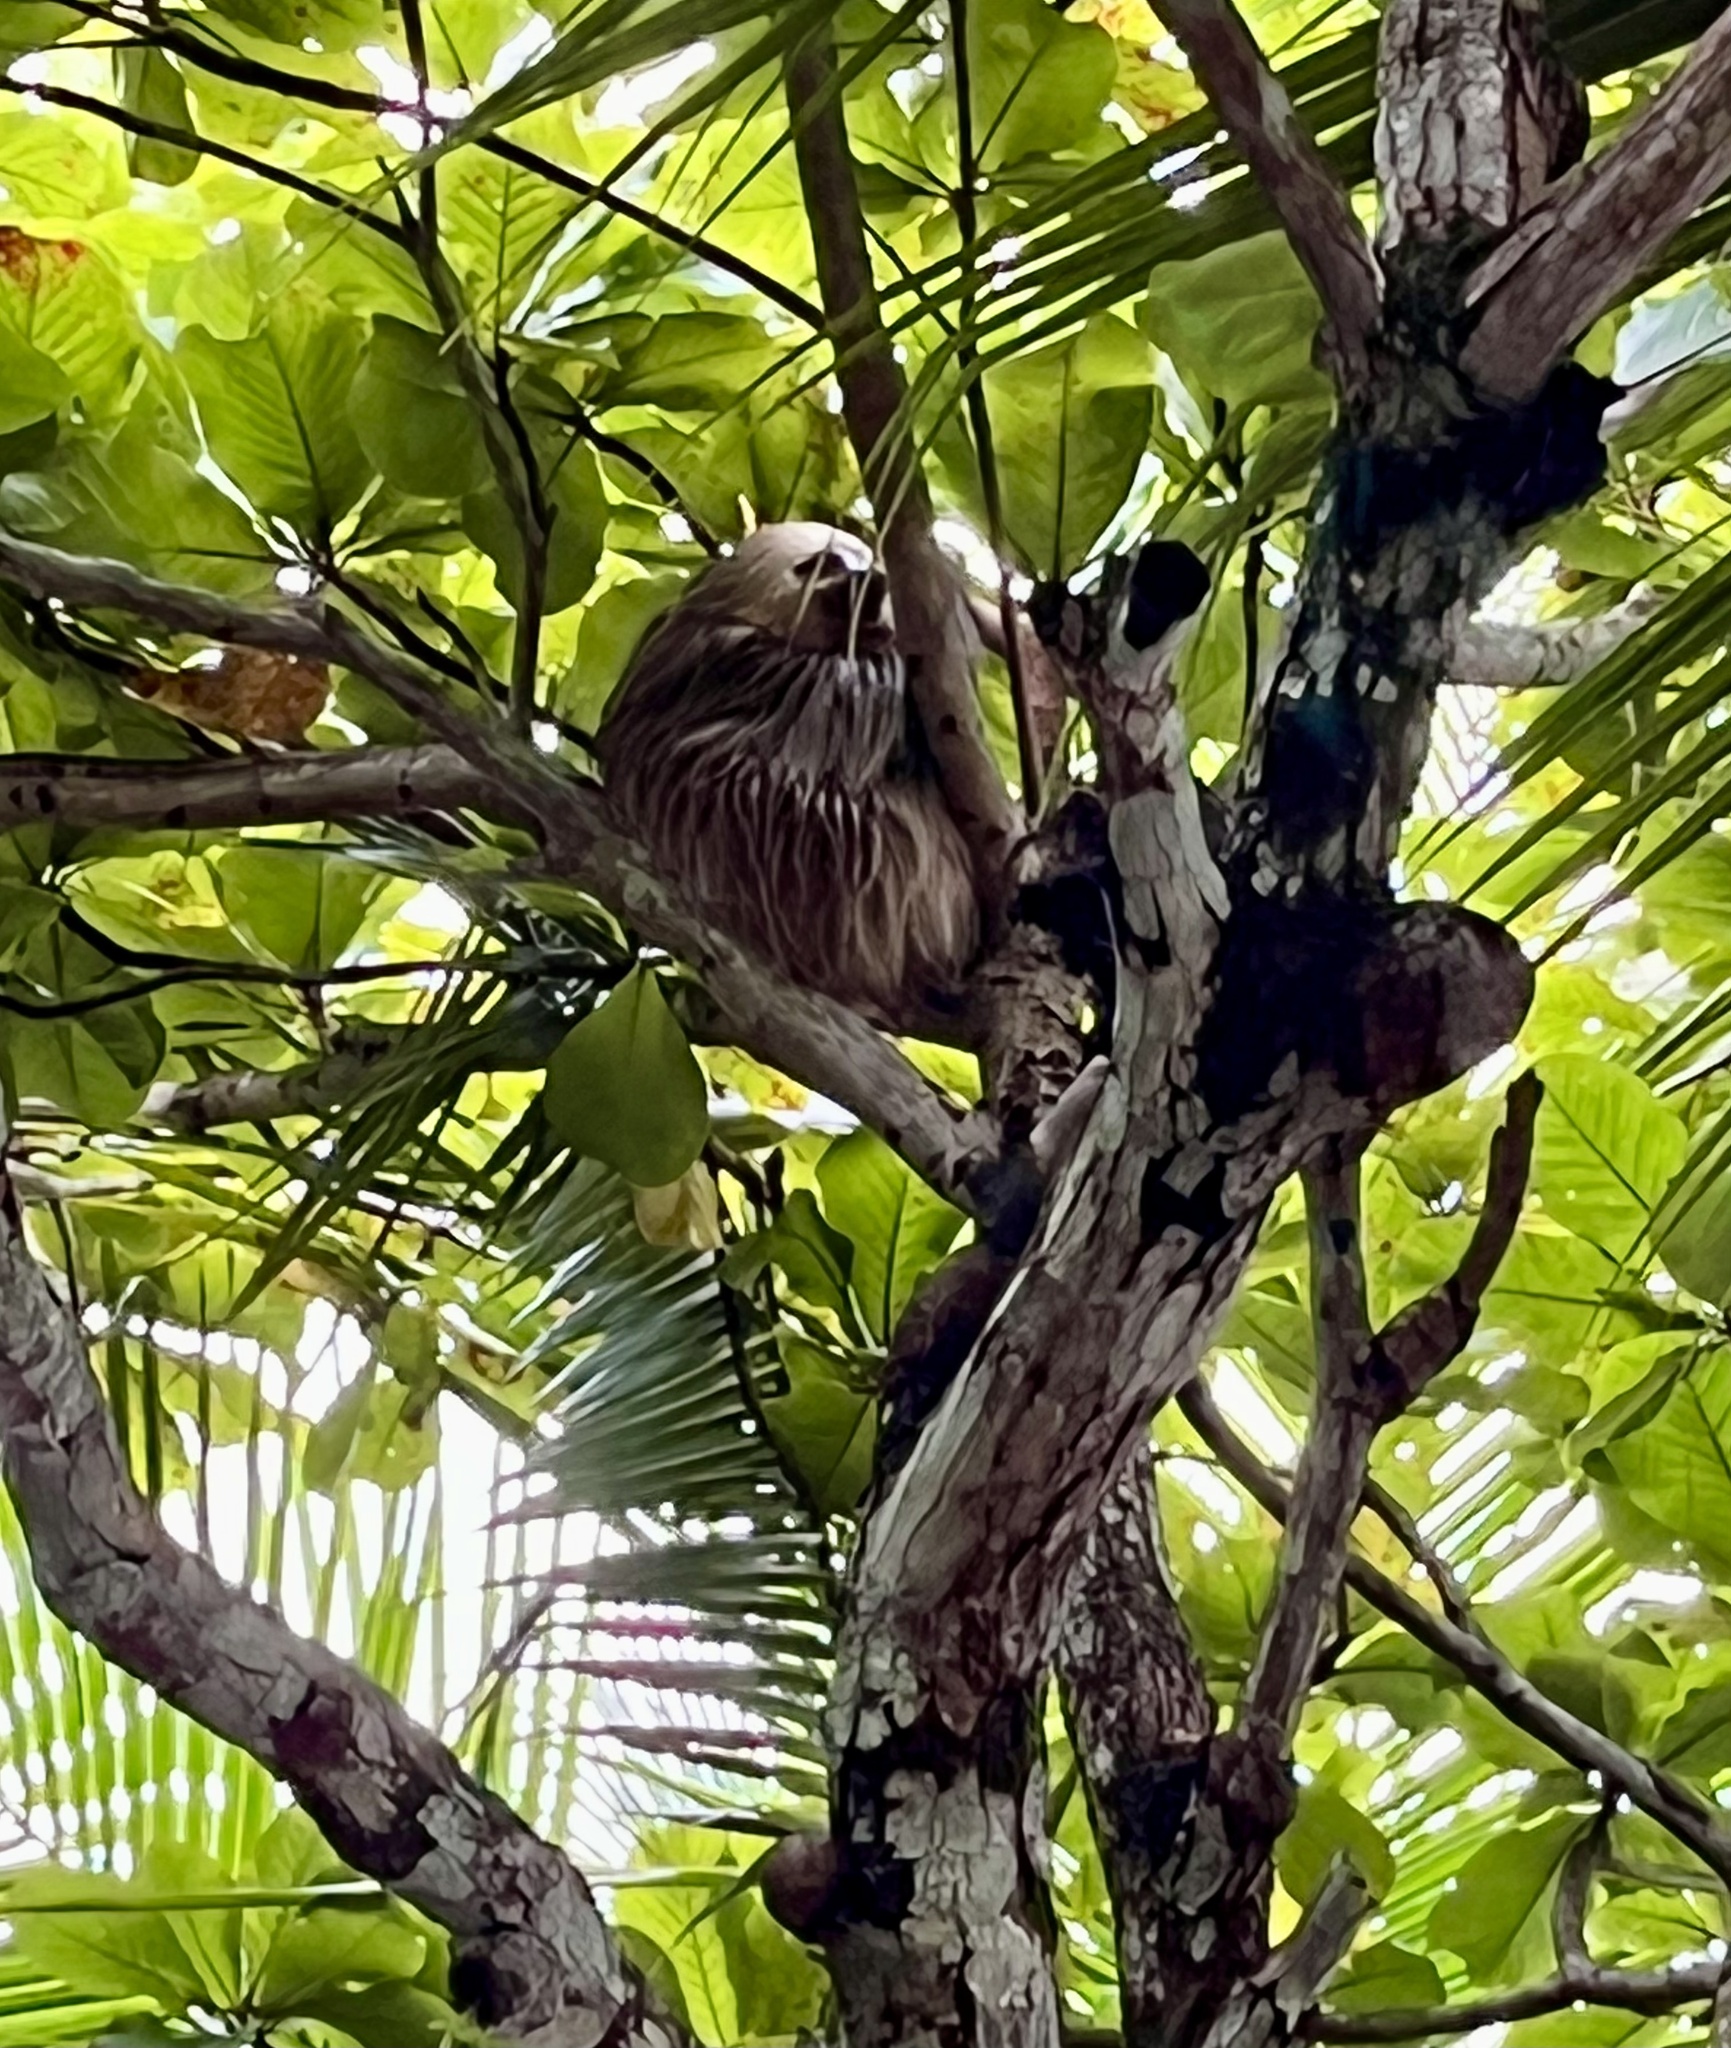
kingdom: Animalia
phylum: Chordata
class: Mammalia
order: Pilosa
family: Megalonychidae
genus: Choloepus
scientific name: Choloepus hoffmanni
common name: Hoffmann's two-toed sloth
